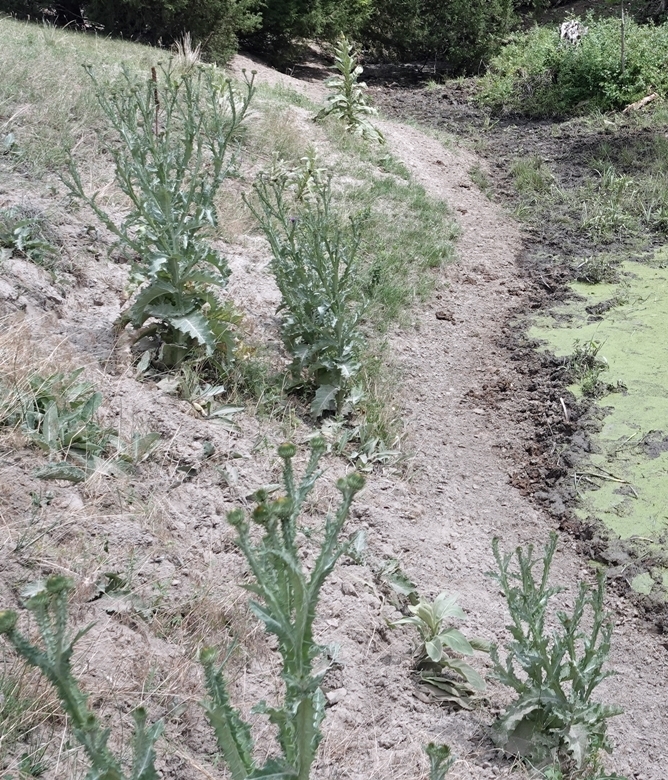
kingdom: Plantae
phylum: Tracheophyta
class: Magnoliopsida
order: Asterales
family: Asteraceae
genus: Onopordum
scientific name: Onopordum acanthium
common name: Scotch thistle
